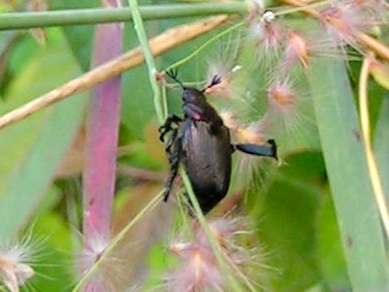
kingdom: Animalia
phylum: Arthropoda
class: Insecta
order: Coleoptera
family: Scarabaeidae
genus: Strigoderma
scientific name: Strigoderma
